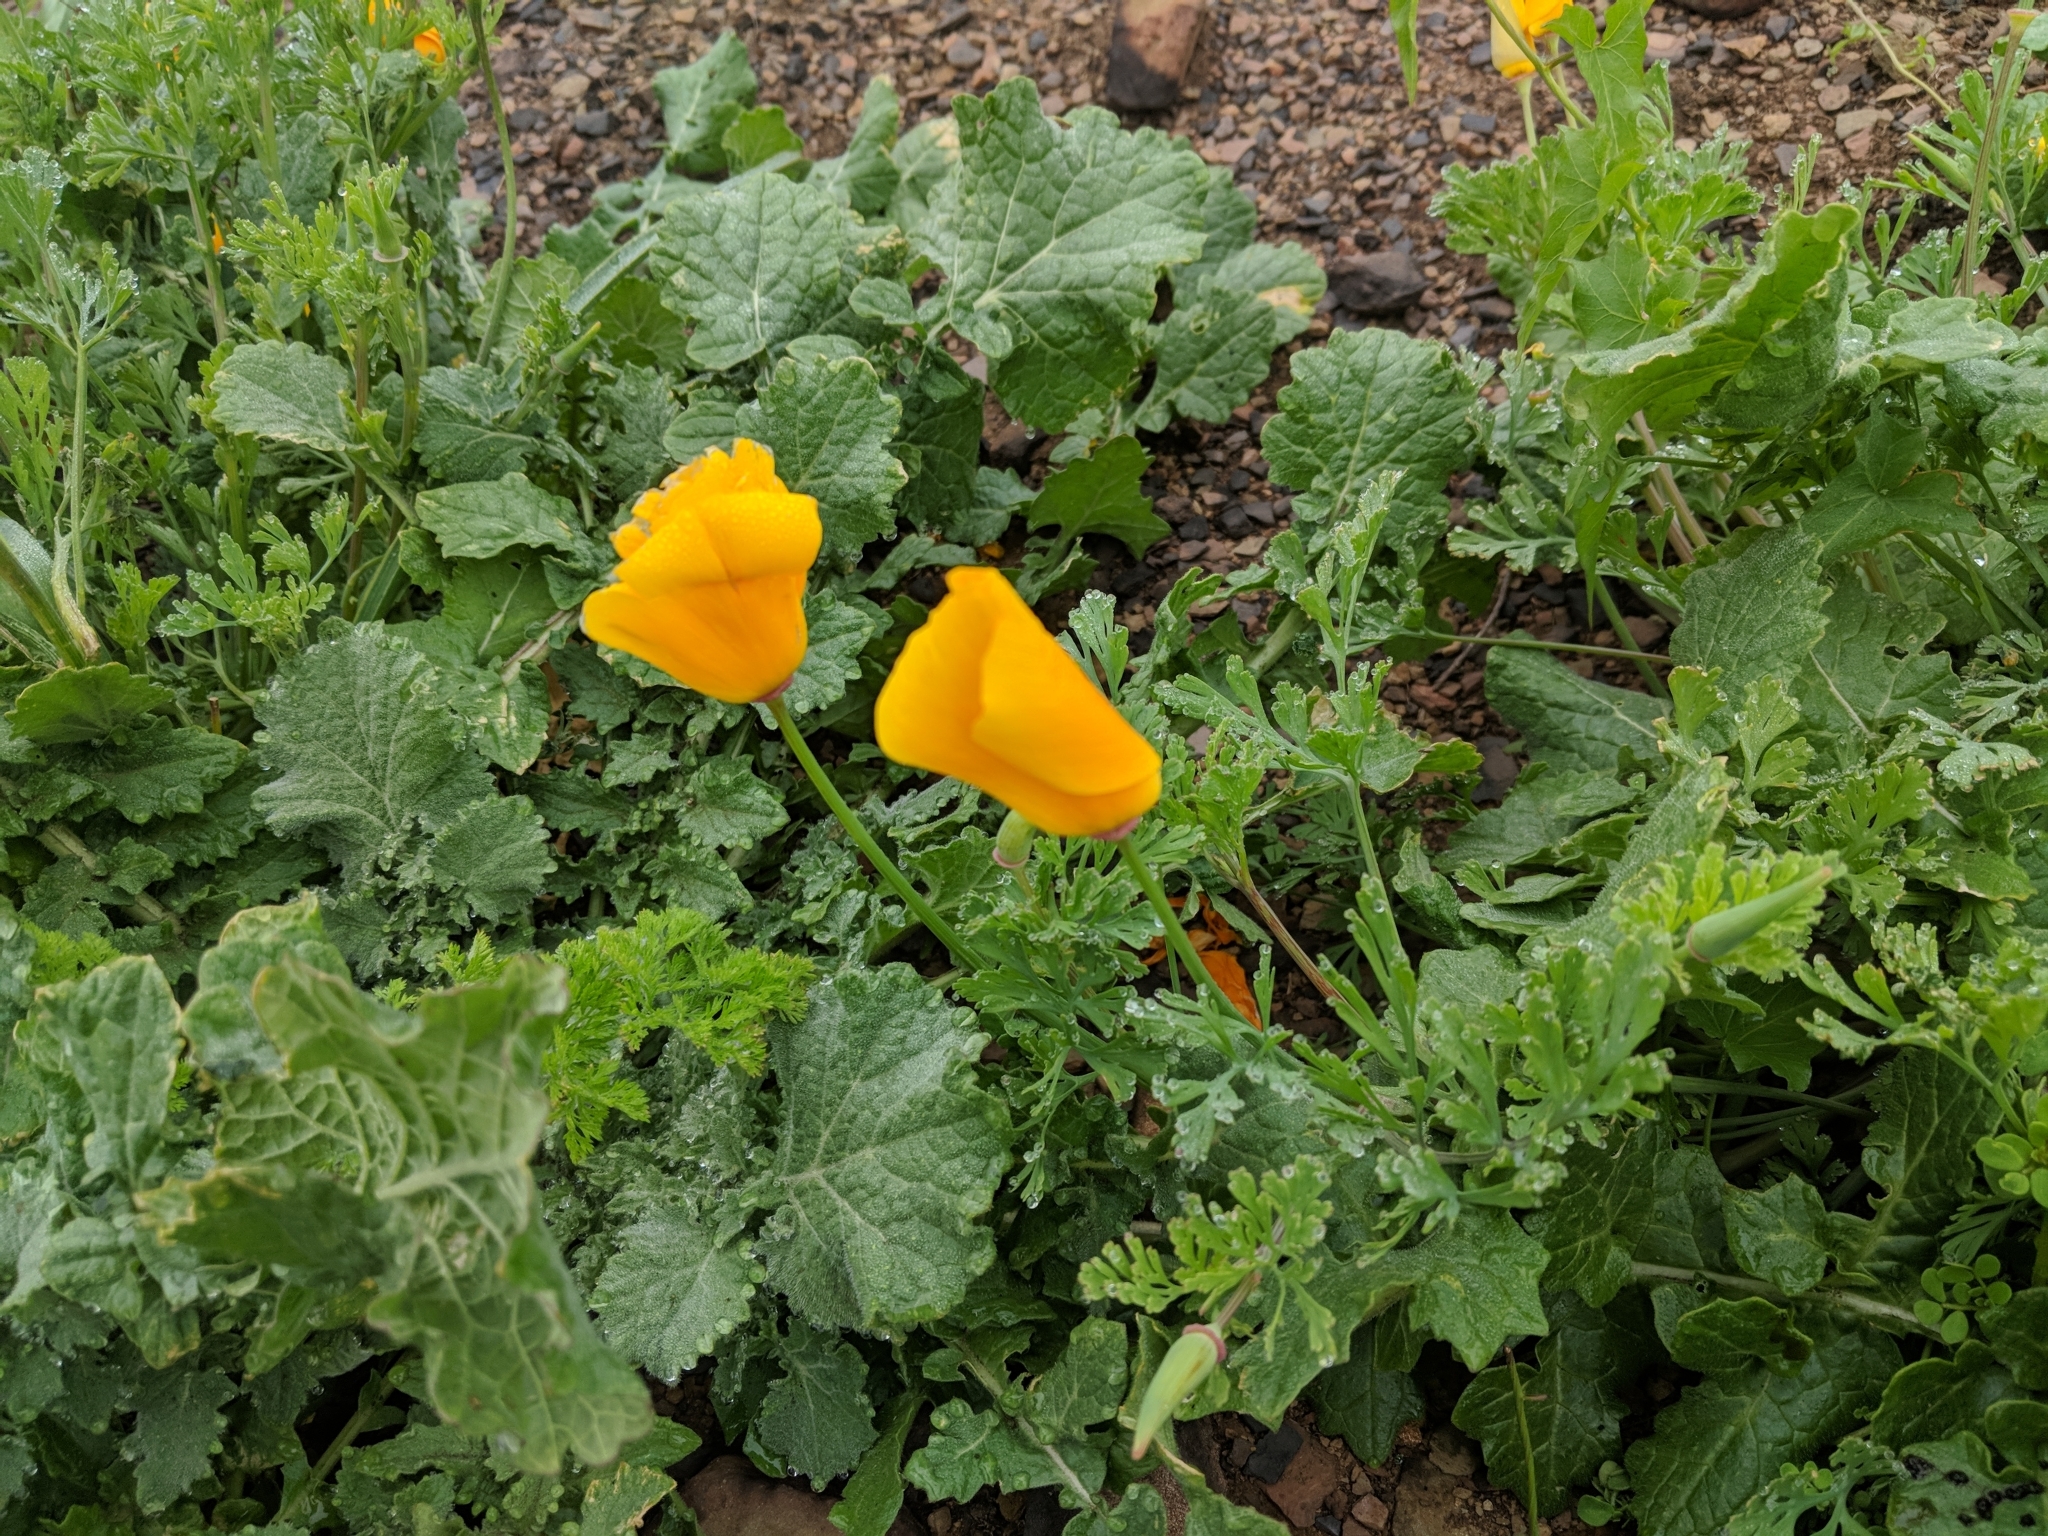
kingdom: Plantae
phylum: Tracheophyta
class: Magnoliopsida
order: Ranunculales
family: Papaveraceae
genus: Eschscholzia
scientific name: Eschscholzia californica
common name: California poppy
